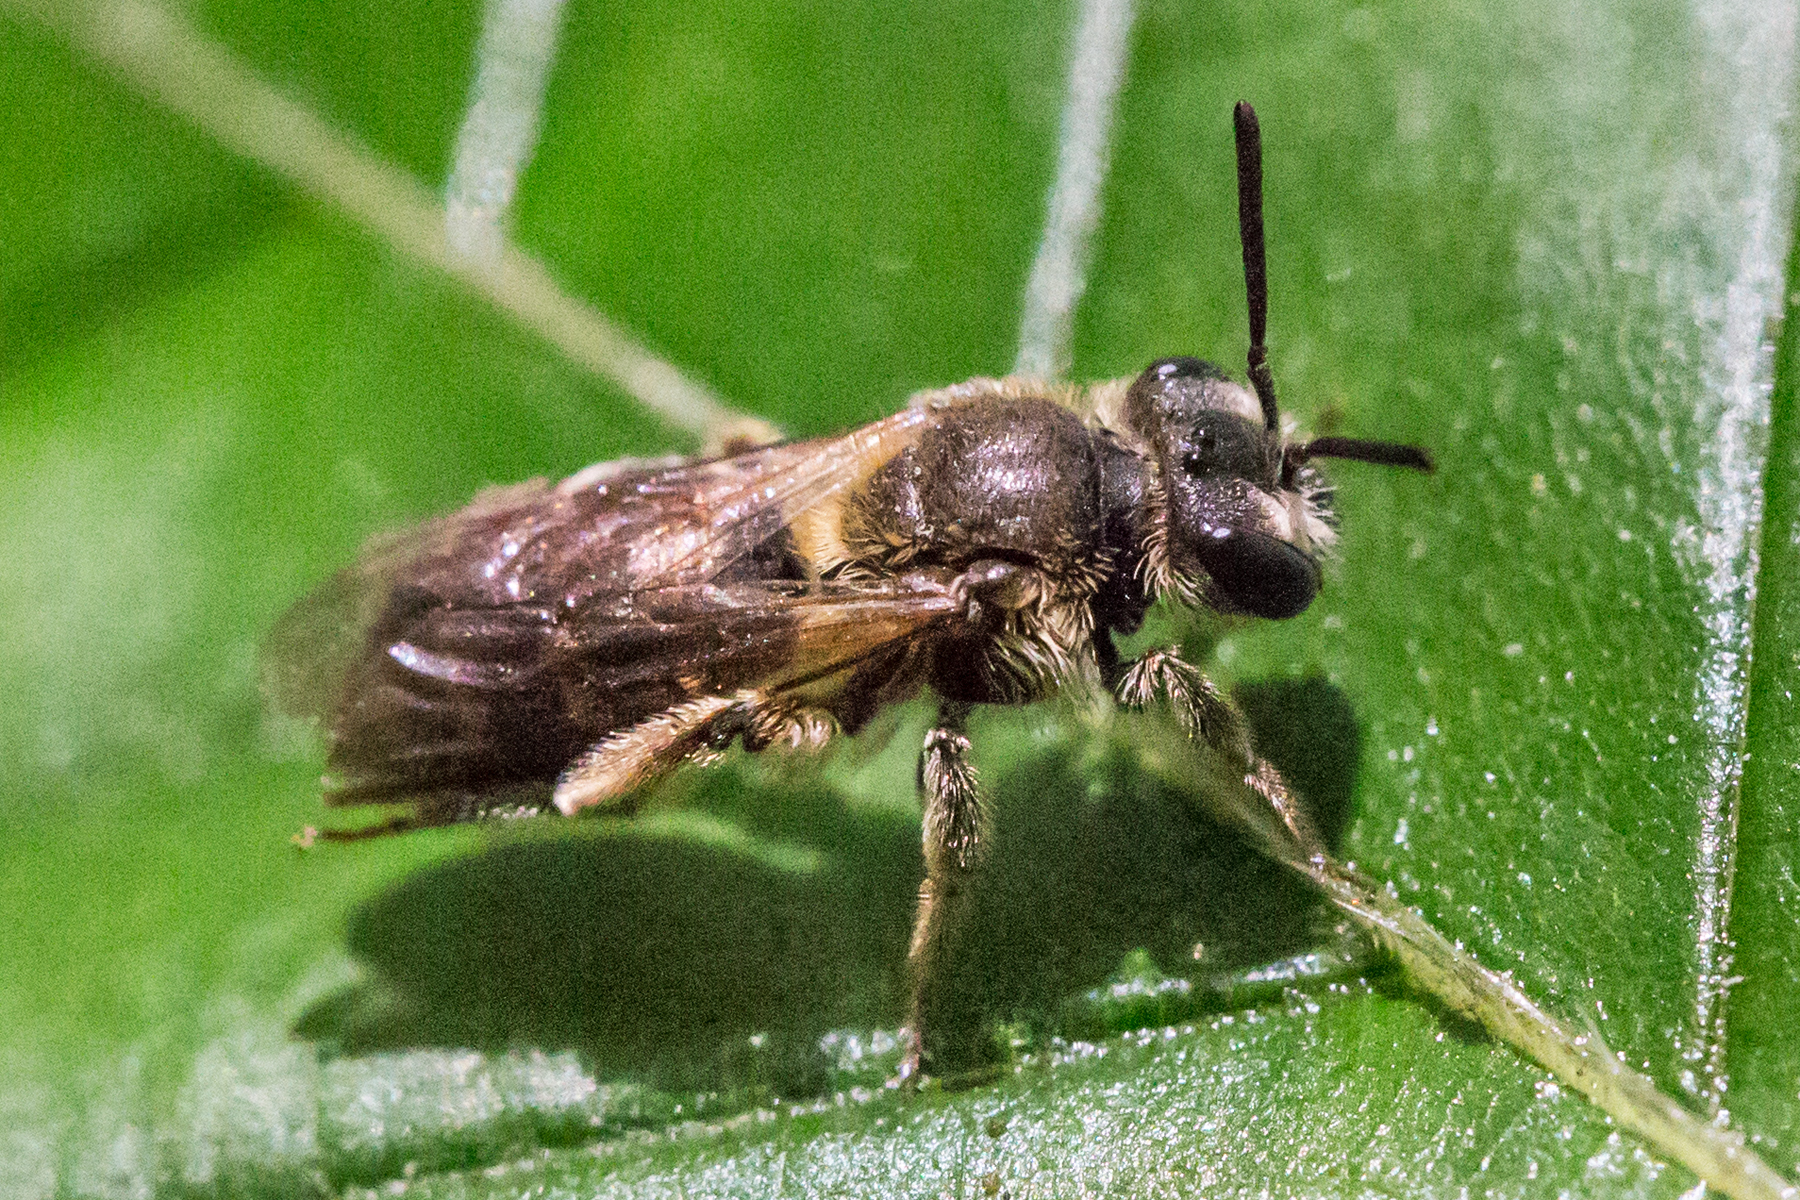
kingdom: Animalia
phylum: Arthropoda
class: Insecta
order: Hymenoptera
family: Andrenidae
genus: Andrena
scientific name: Andrena
